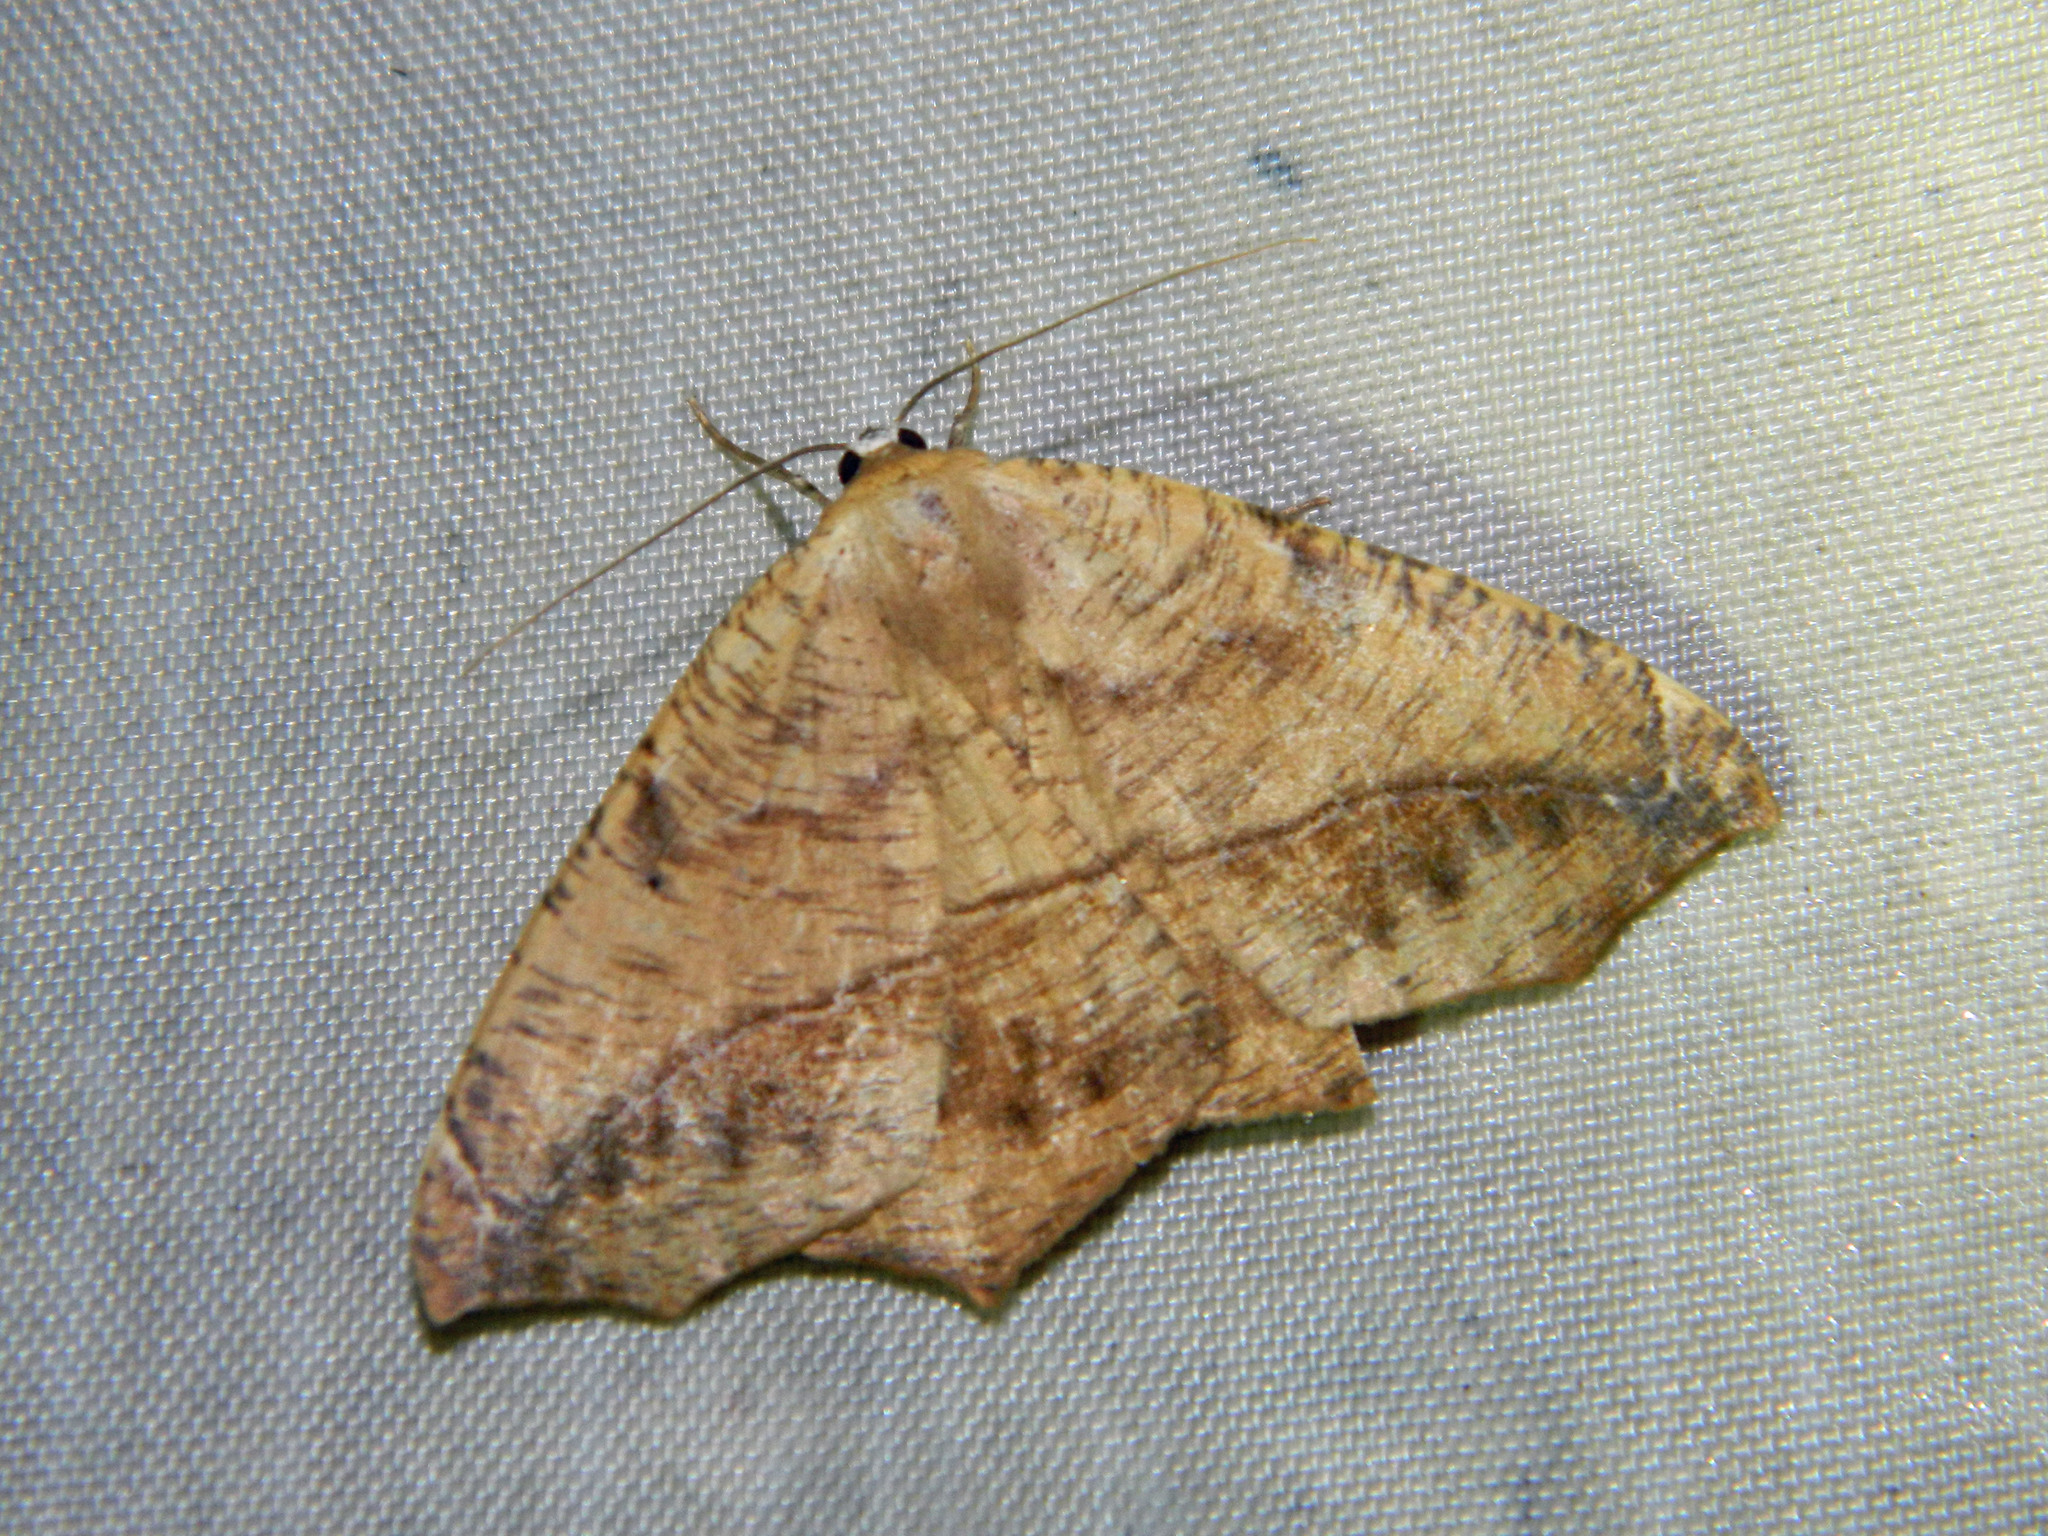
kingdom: Animalia
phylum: Arthropoda
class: Insecta
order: Lepidoptera
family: Geometridae
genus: Prochoerodes
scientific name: Prochoerodes lineola
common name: Large maple spanworm
